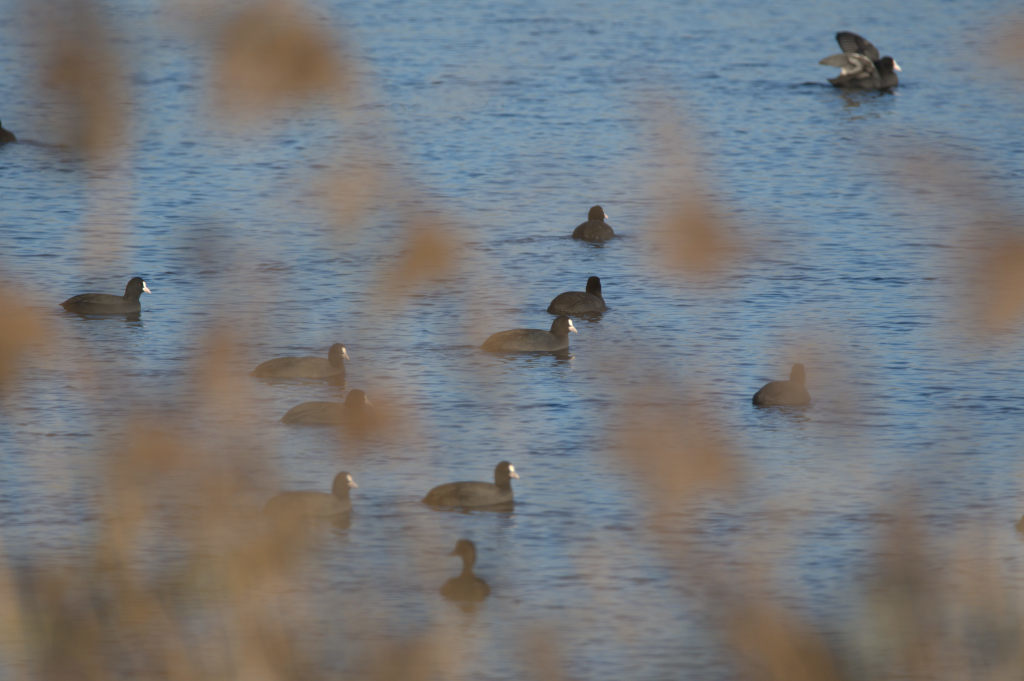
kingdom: Animalia
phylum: Chordata
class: Aves
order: Gruiformes
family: Rallidae
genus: Fulica
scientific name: Fulica atra
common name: Eurasian coot
